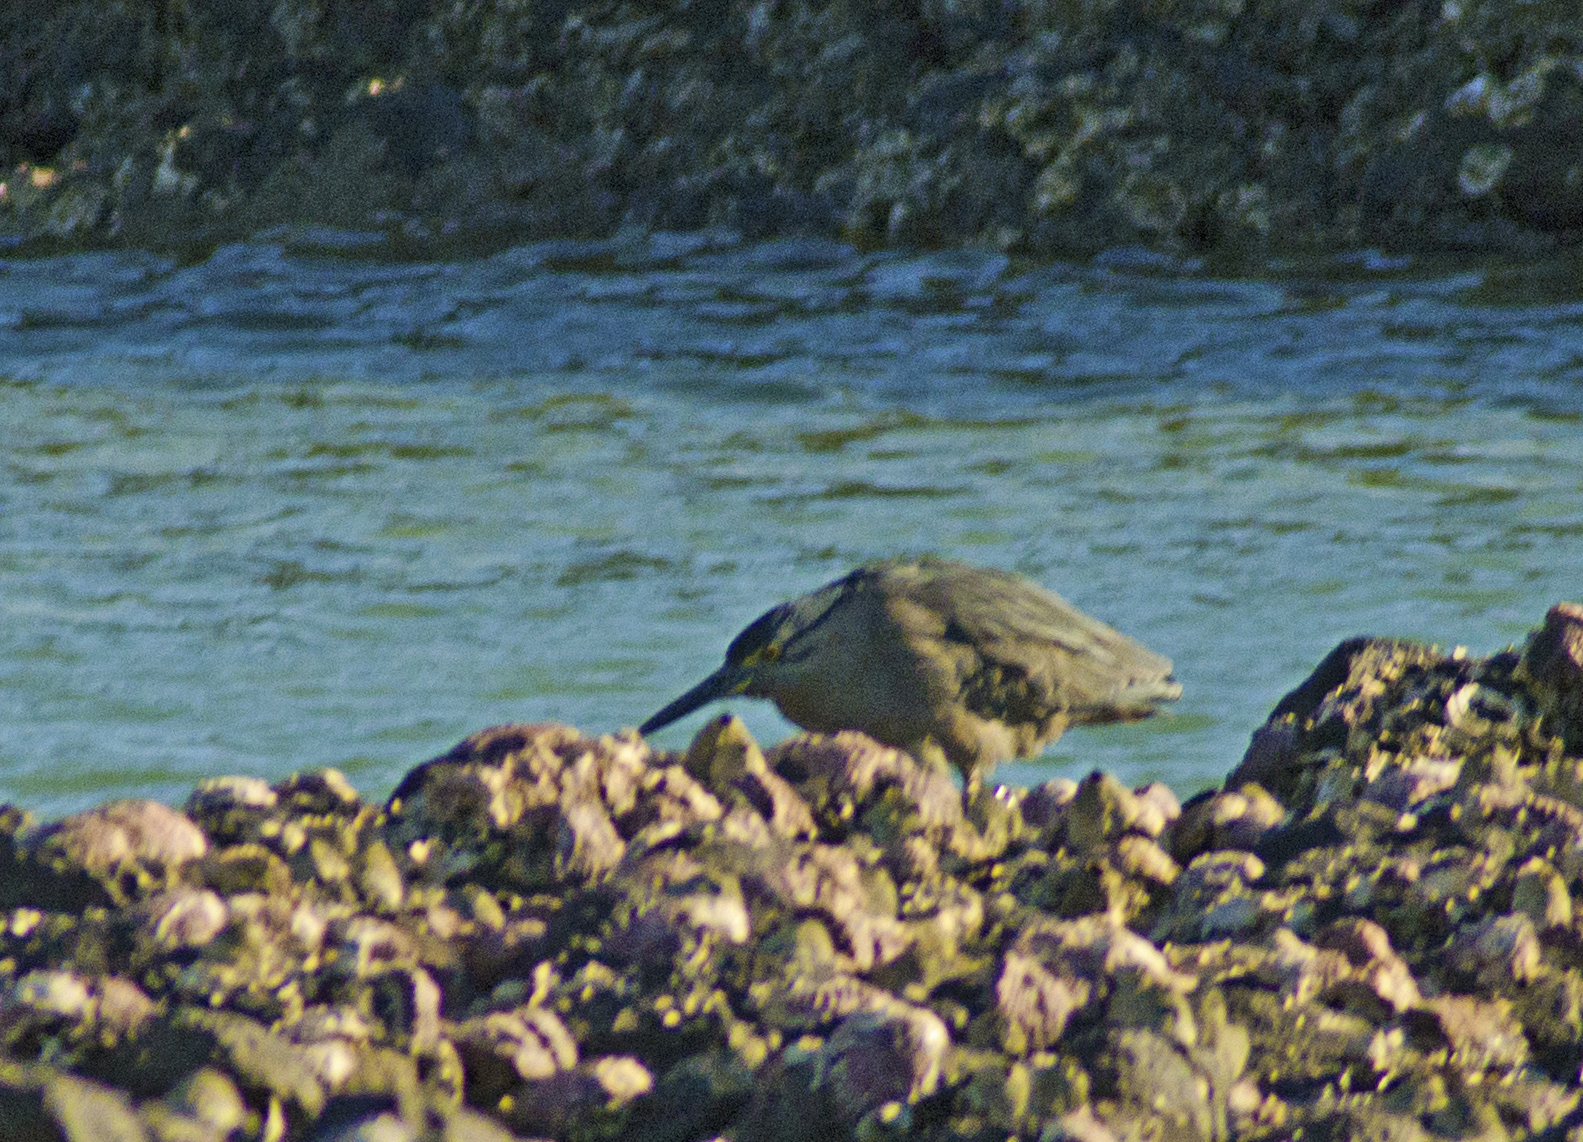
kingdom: Animalia
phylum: Chordata
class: Aves
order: Pelecaniformes
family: Ardeidae
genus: Butorides
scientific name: Butorides striata
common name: Striated heron
